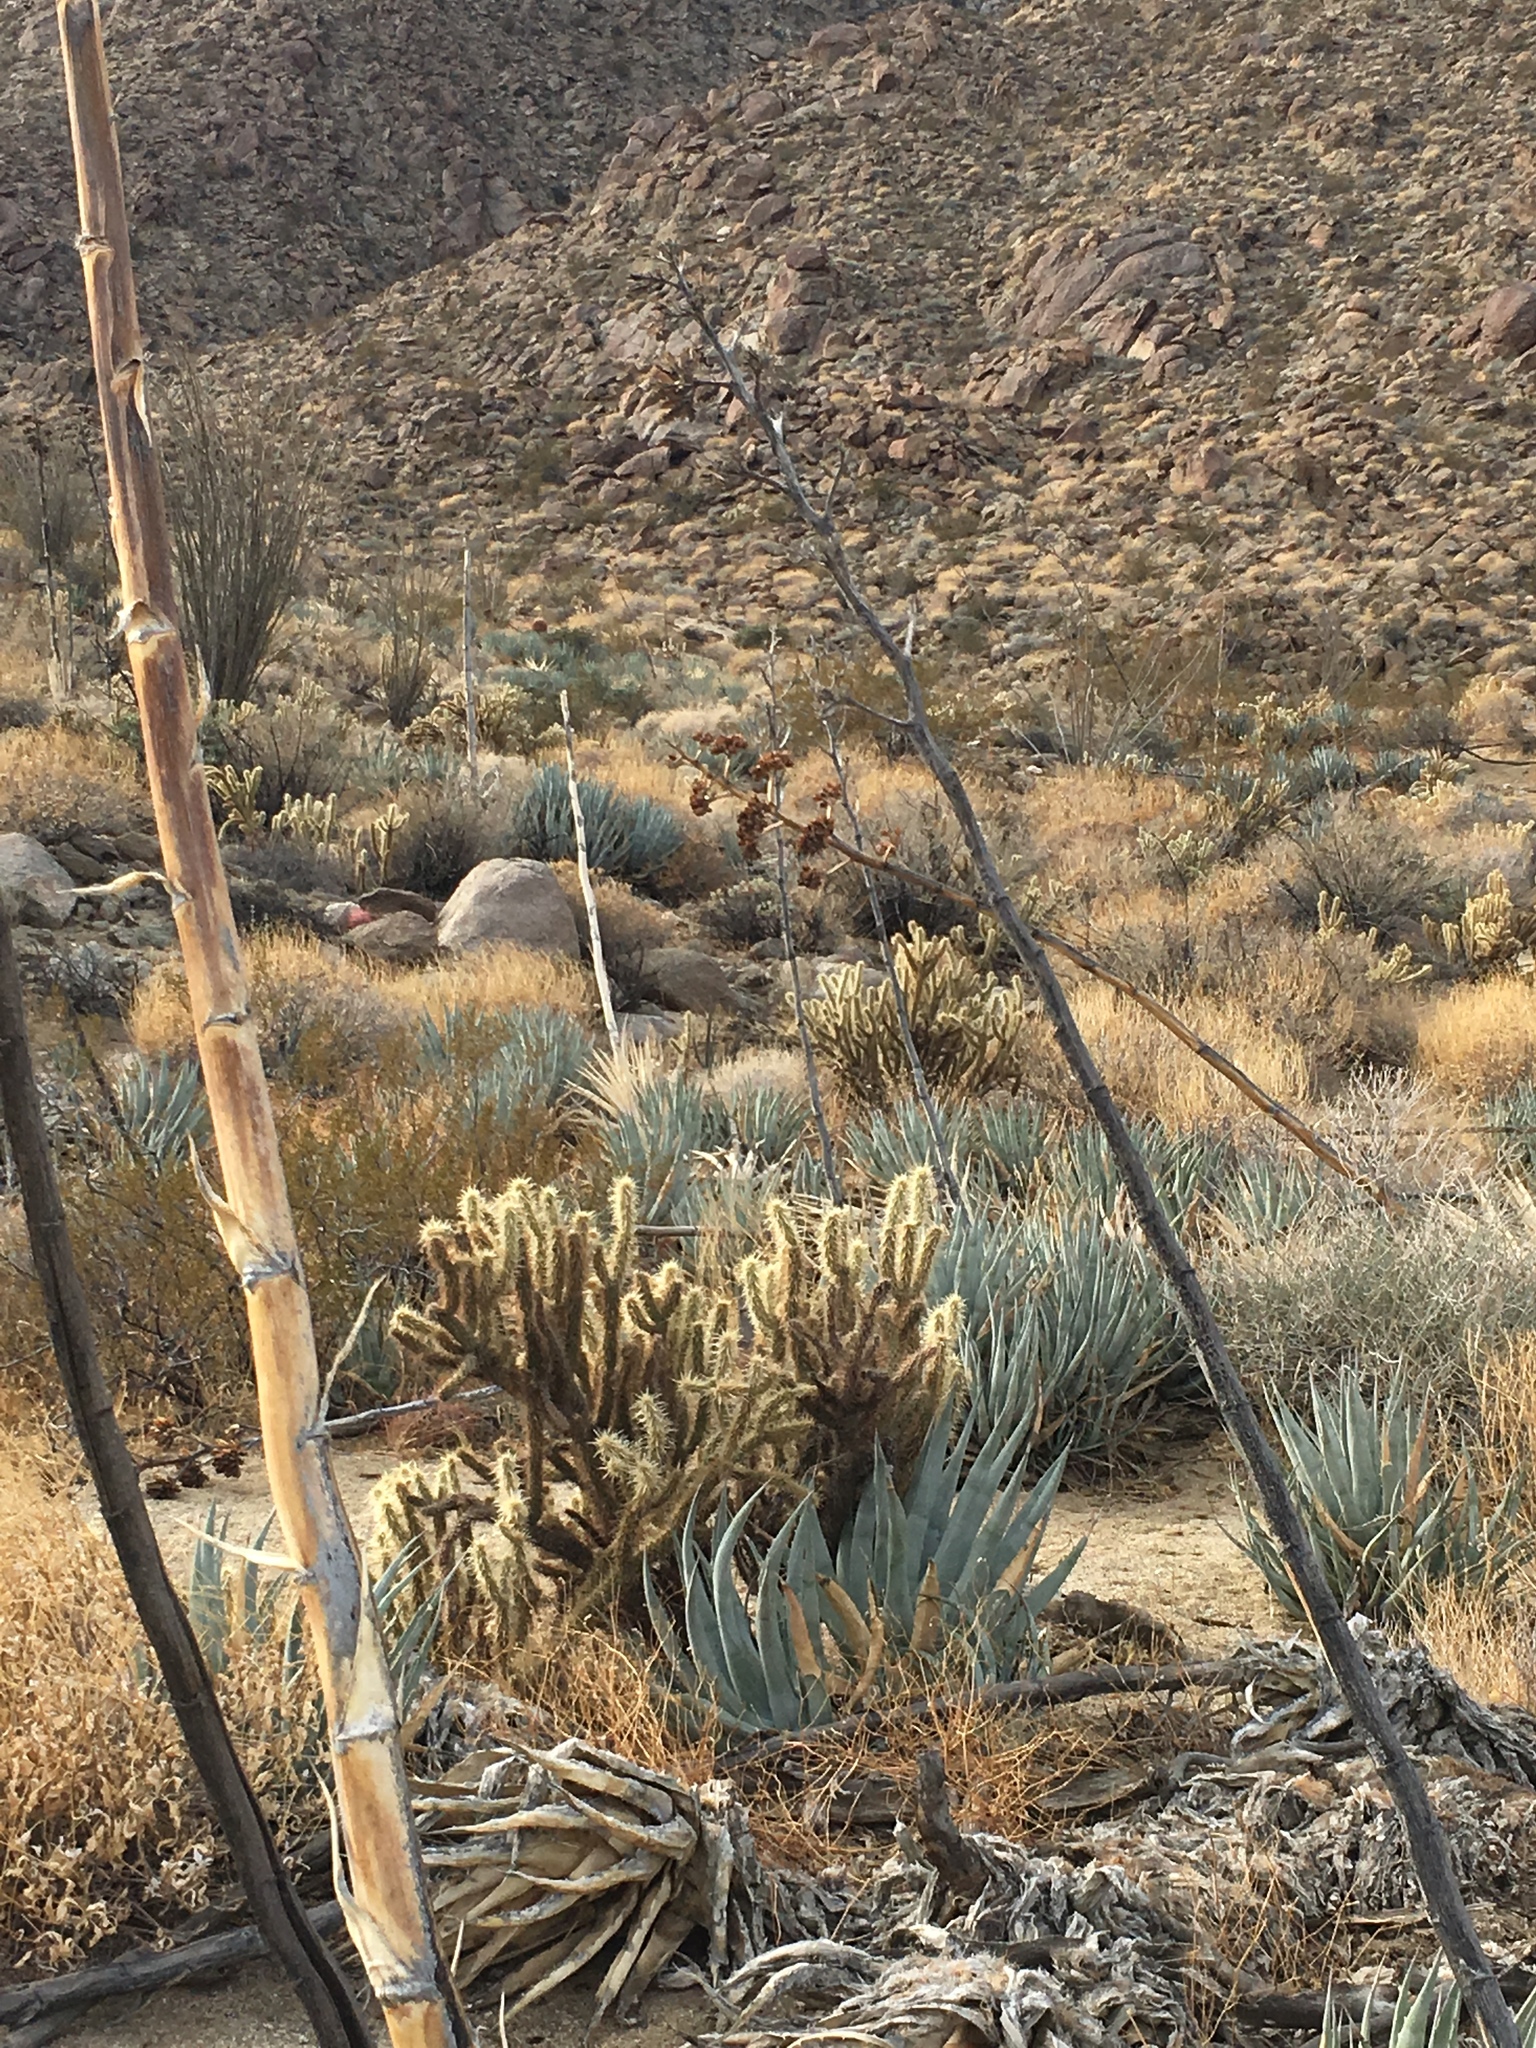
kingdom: Plantae
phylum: Tracheophyta
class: Liliopsida
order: Asparagales
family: Asparagaceae
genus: Agave
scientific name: Agave deserti
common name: Desert agave
